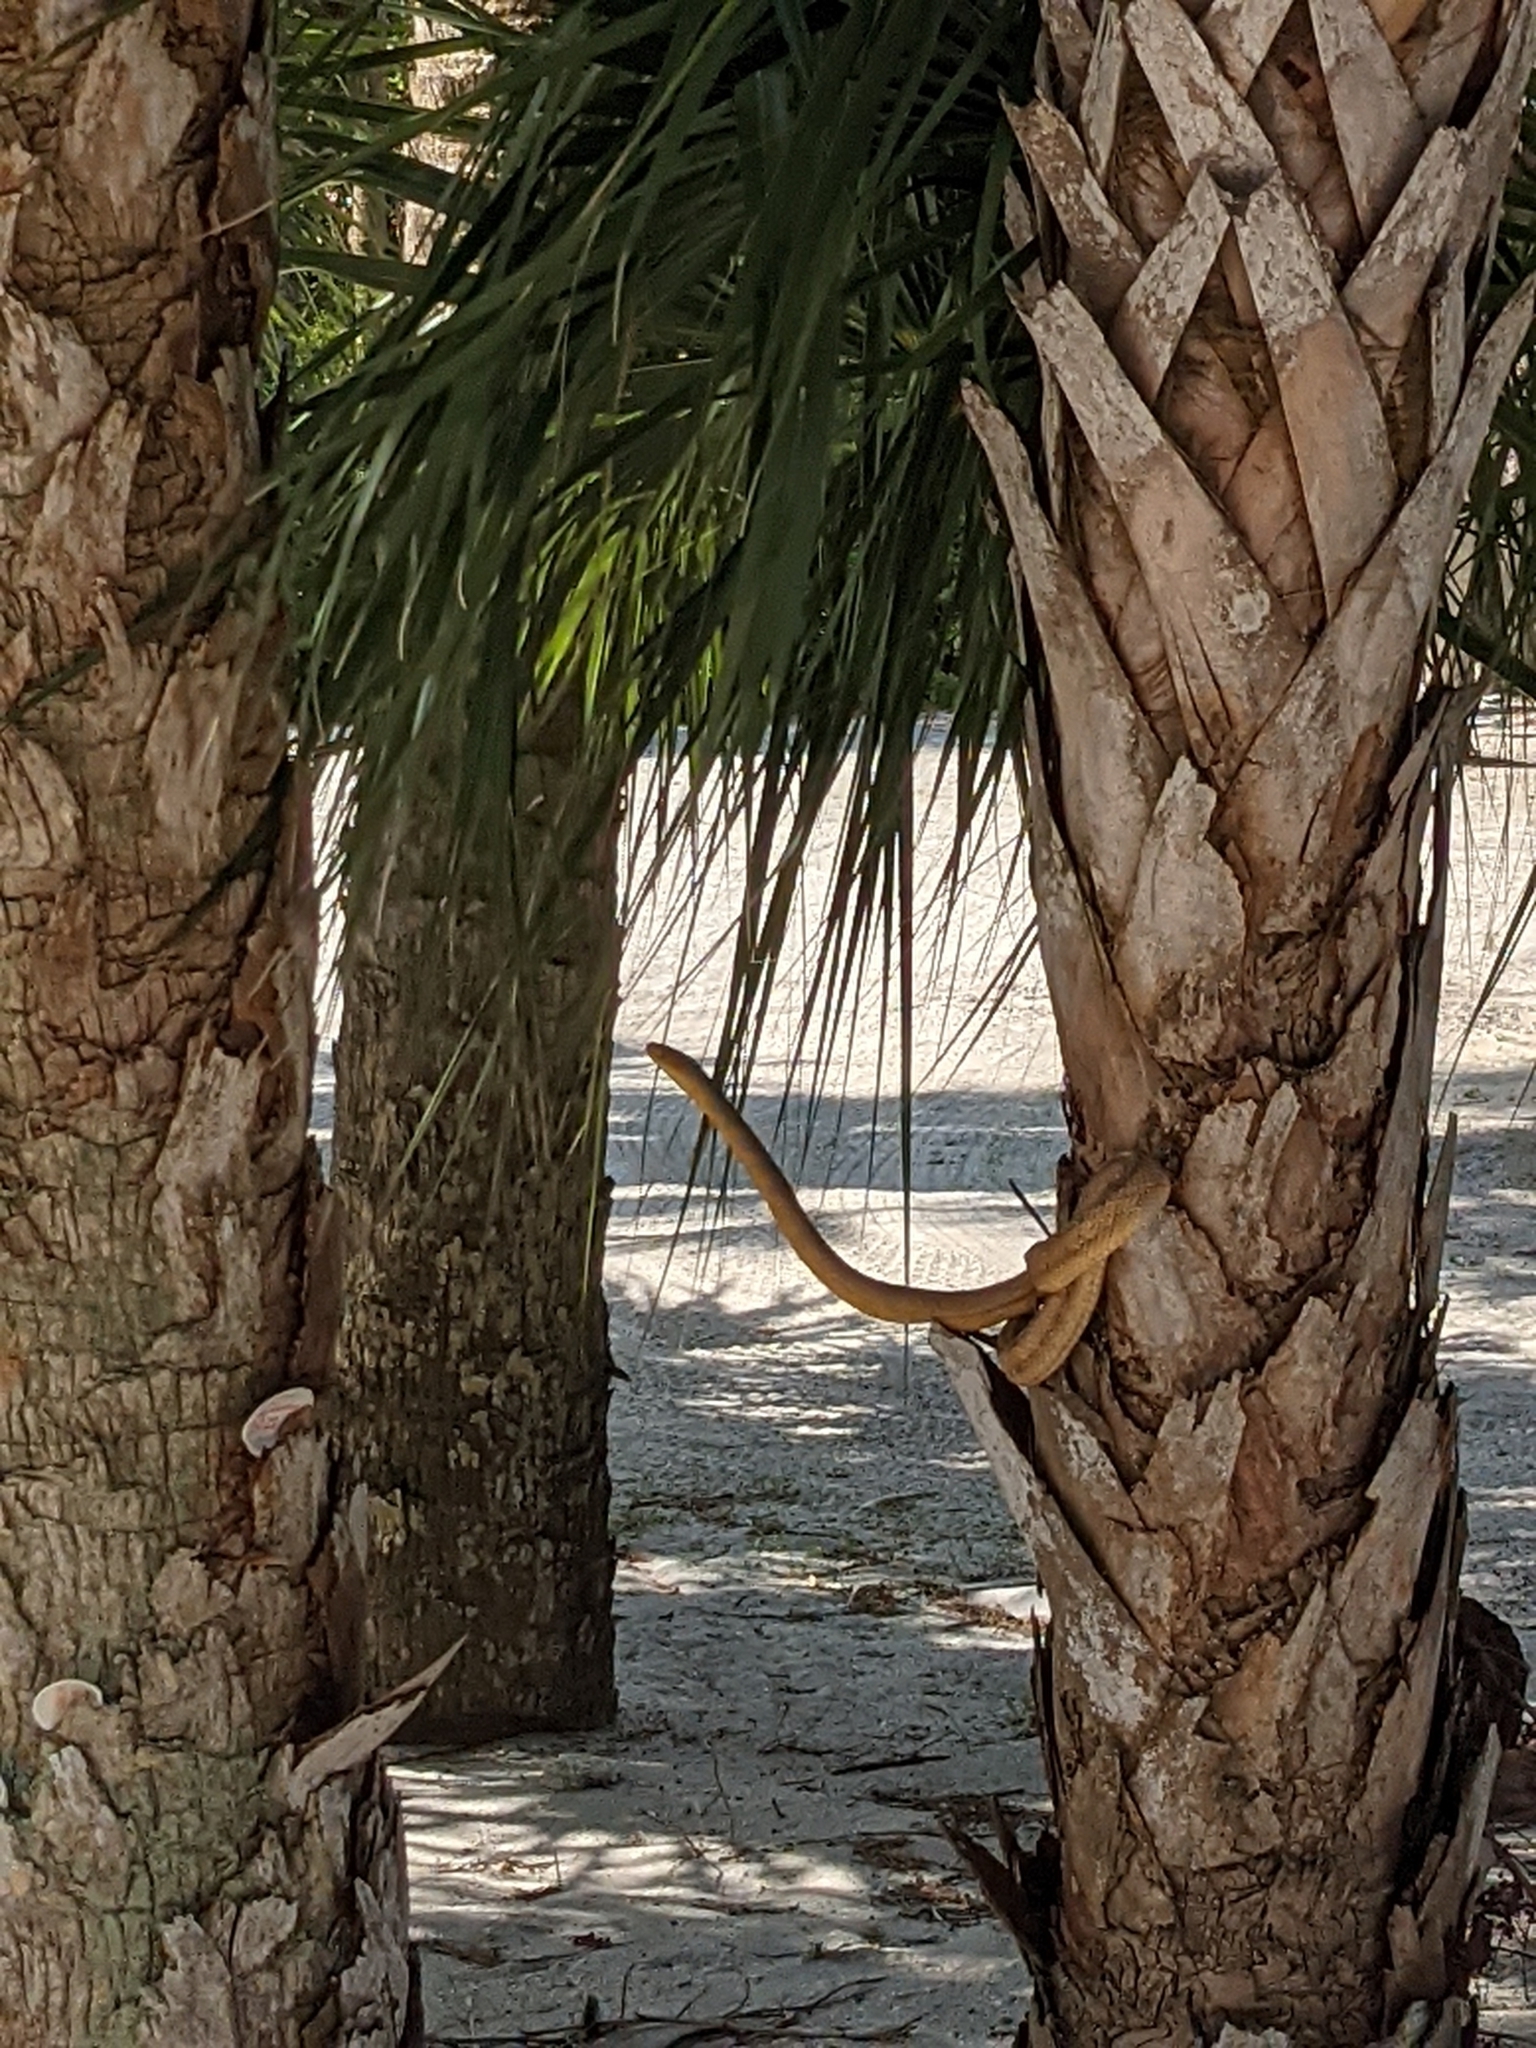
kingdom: Animalia
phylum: Chordata
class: Squamata
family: Colubridae
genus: Pantherophis
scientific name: Pantherophis alleghaniensis
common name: Eastern rat snake
